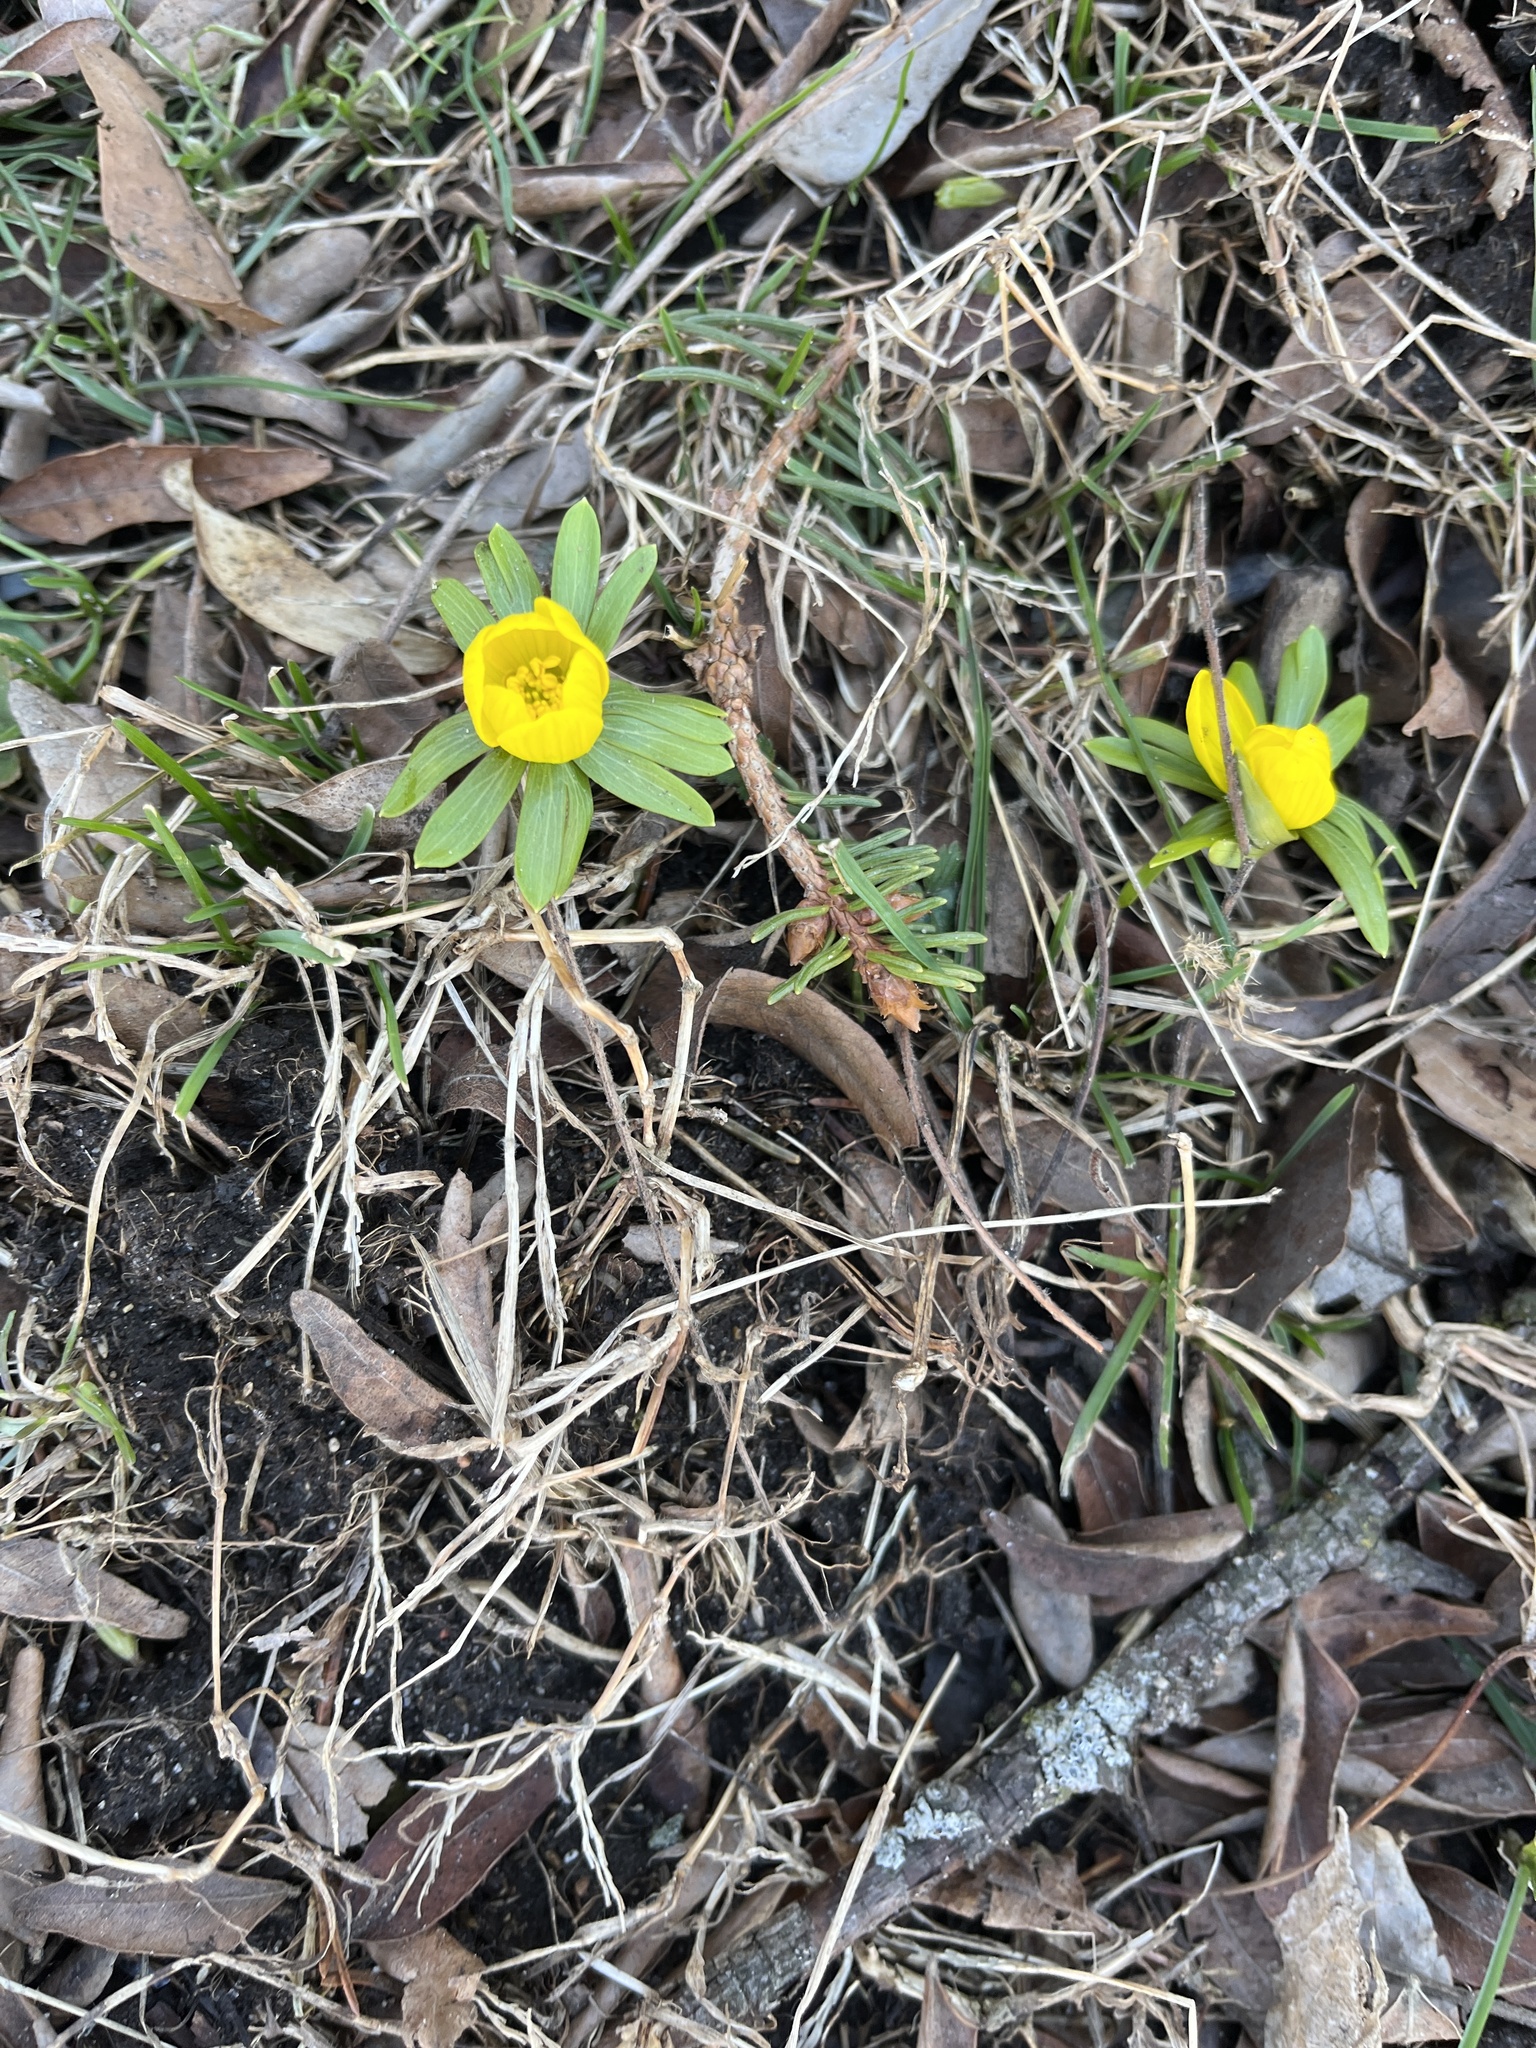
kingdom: Plantae
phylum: Tracheophyta
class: Magnoliopsida
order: Ranunculales
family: Ranunculaceae
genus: Eranthis
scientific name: Eranthis hyemalis
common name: Winter aconite
